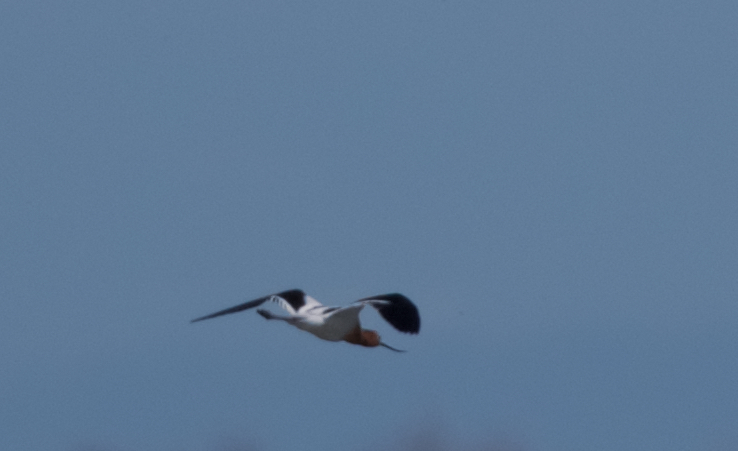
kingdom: Animalia
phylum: Chordata
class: Aves
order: Charadriiformes
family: Recurvirostridae
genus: Recurvirostra
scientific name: Recurvirostra americana
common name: American avocet
